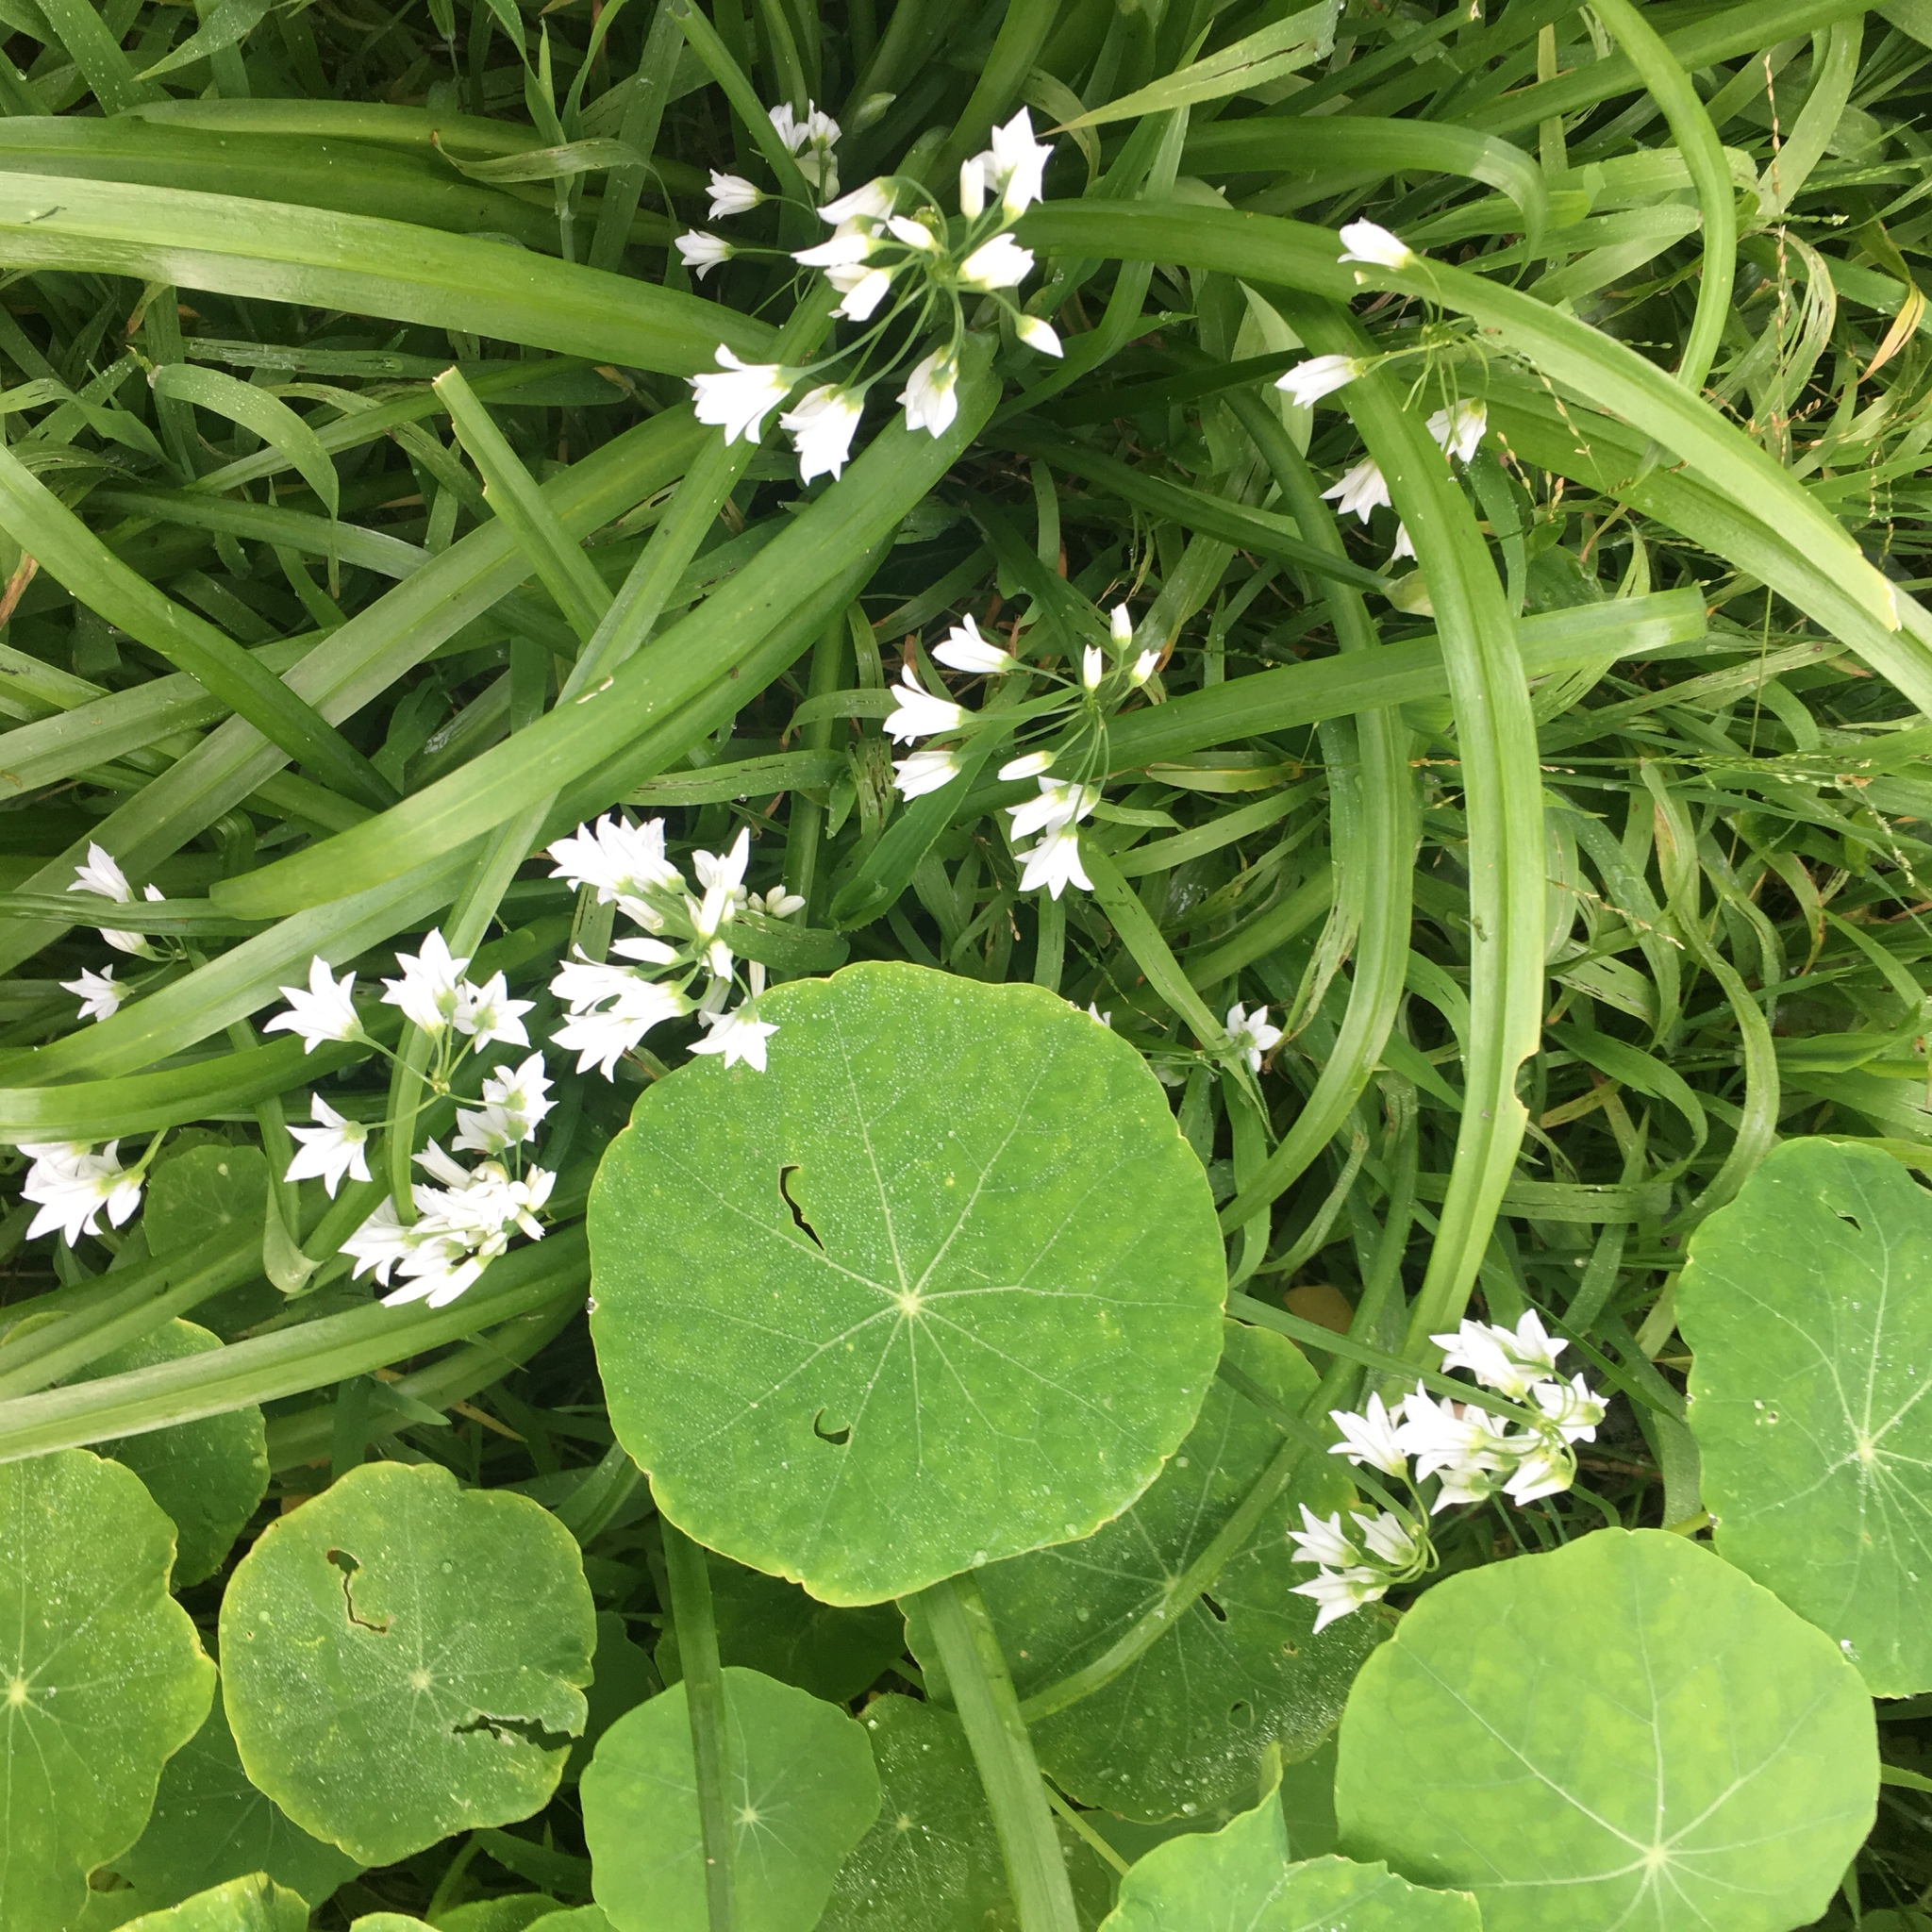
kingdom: Plantae
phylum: Tracheophyta
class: Liliopsida
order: Asparagales
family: Amaryllidaceae
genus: Allium
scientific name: Allium triquetrum
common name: Three-cornered garlic
